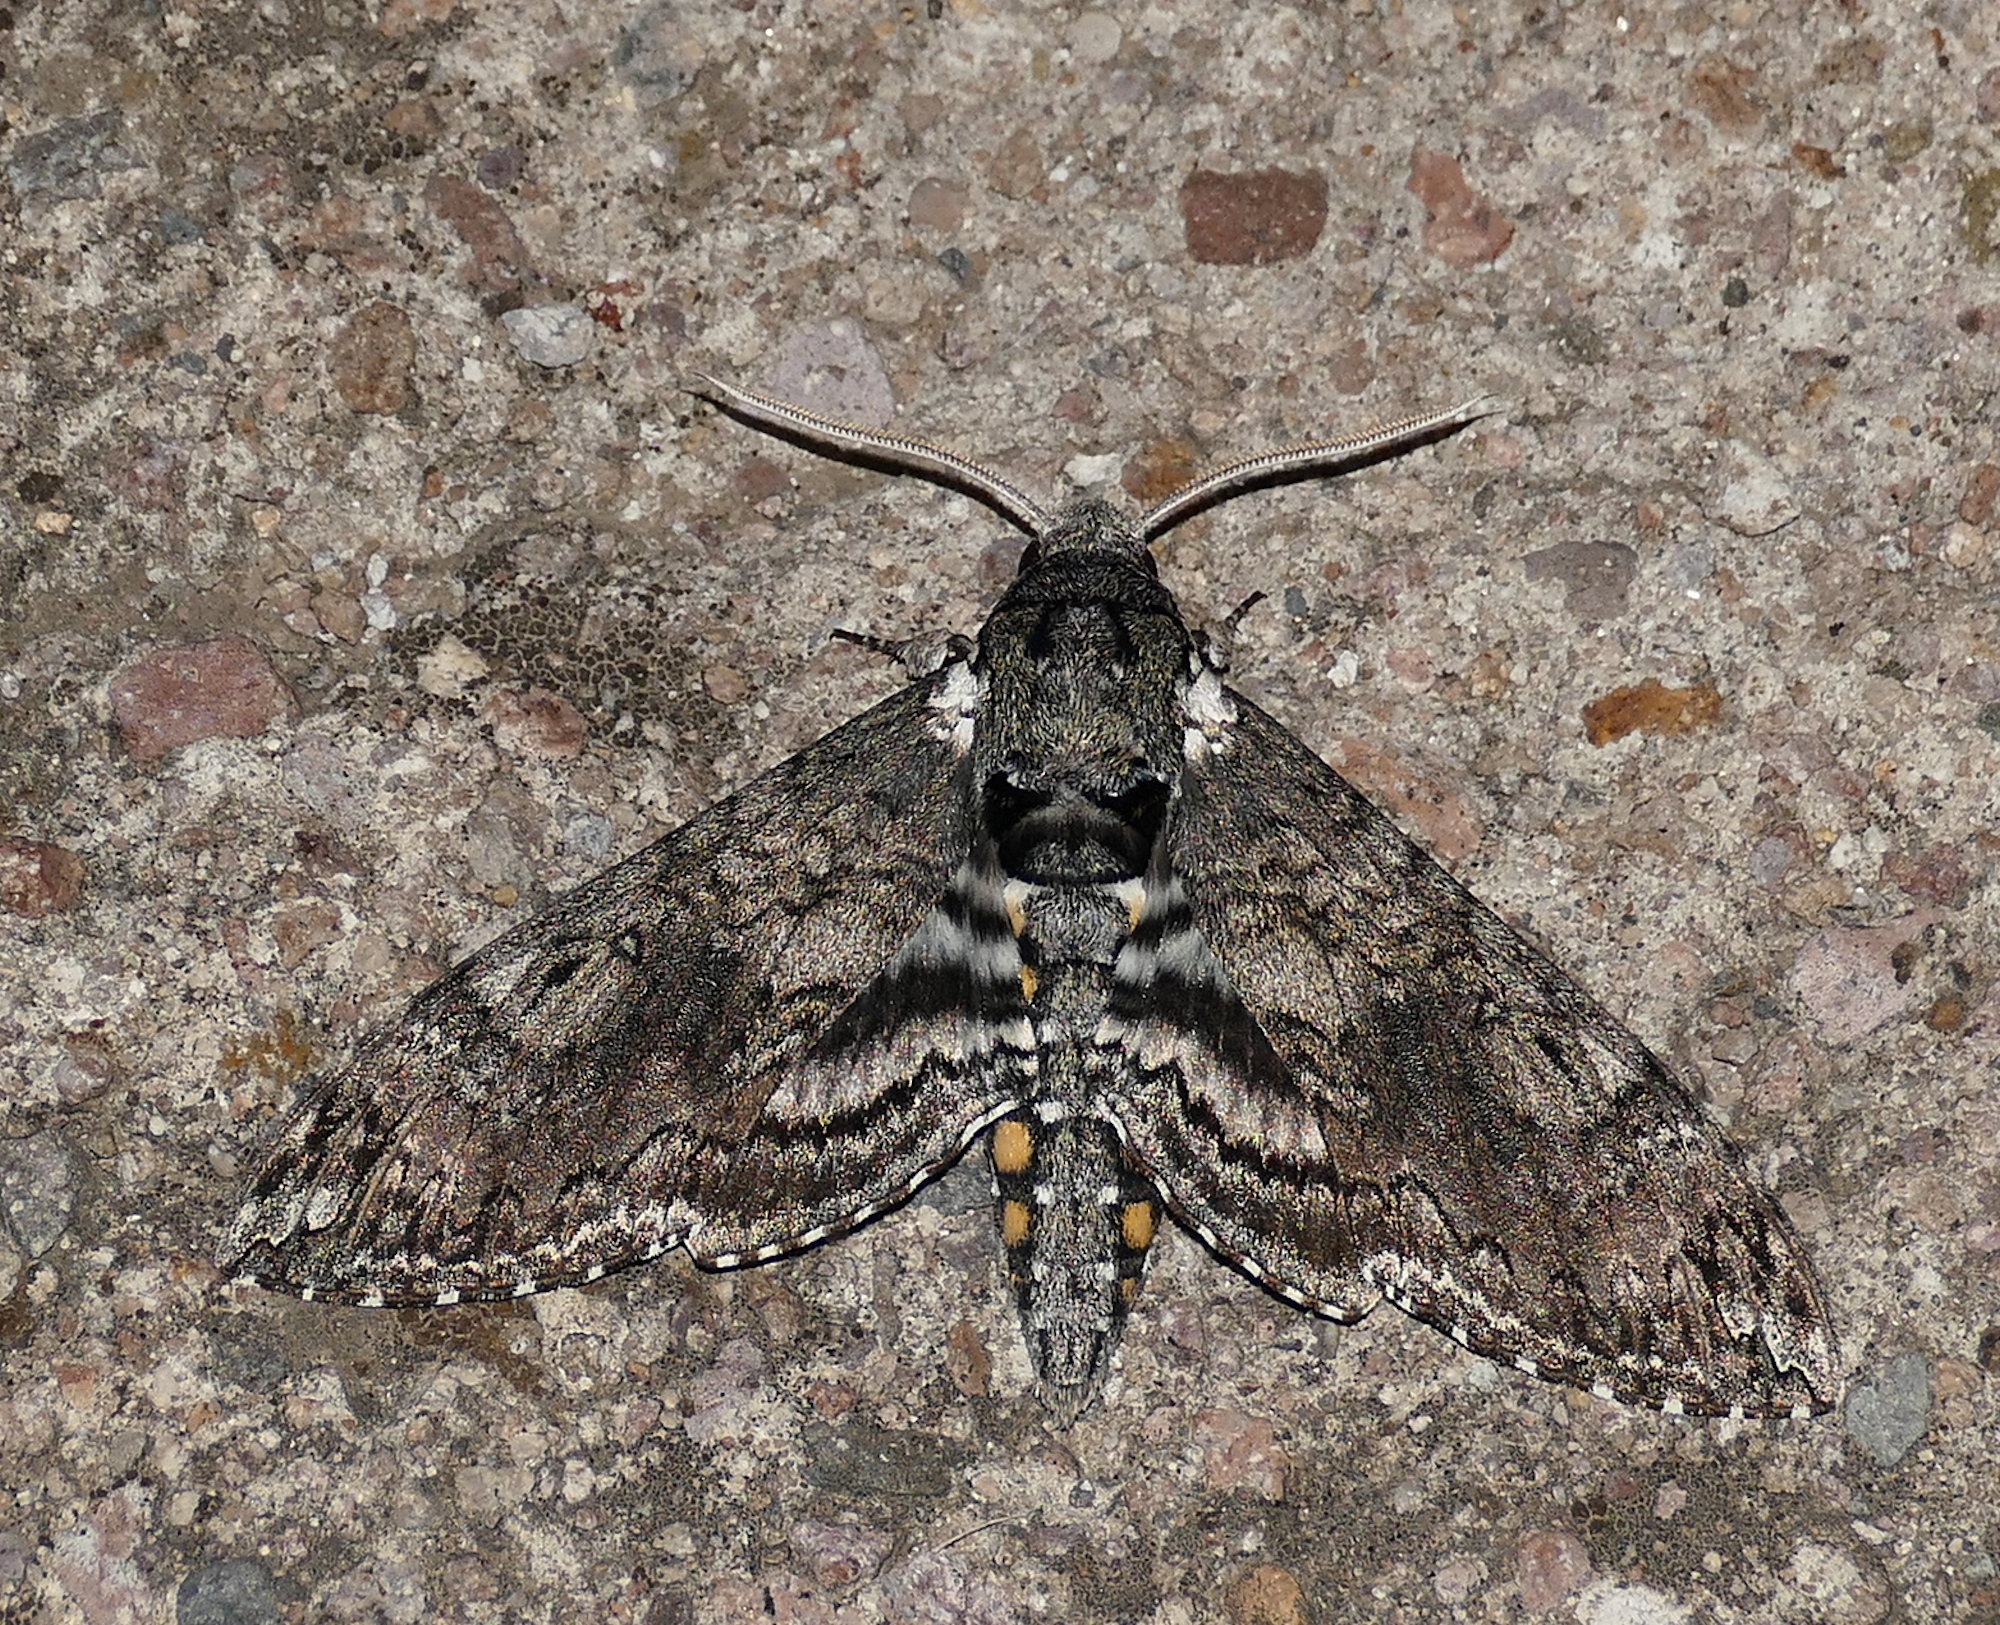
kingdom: Animalia
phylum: Arthropoda
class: Insecta
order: Lepidoptera
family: Sphingidae
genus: Manduca
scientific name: Manduca sexta
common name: Carolina sphinx
